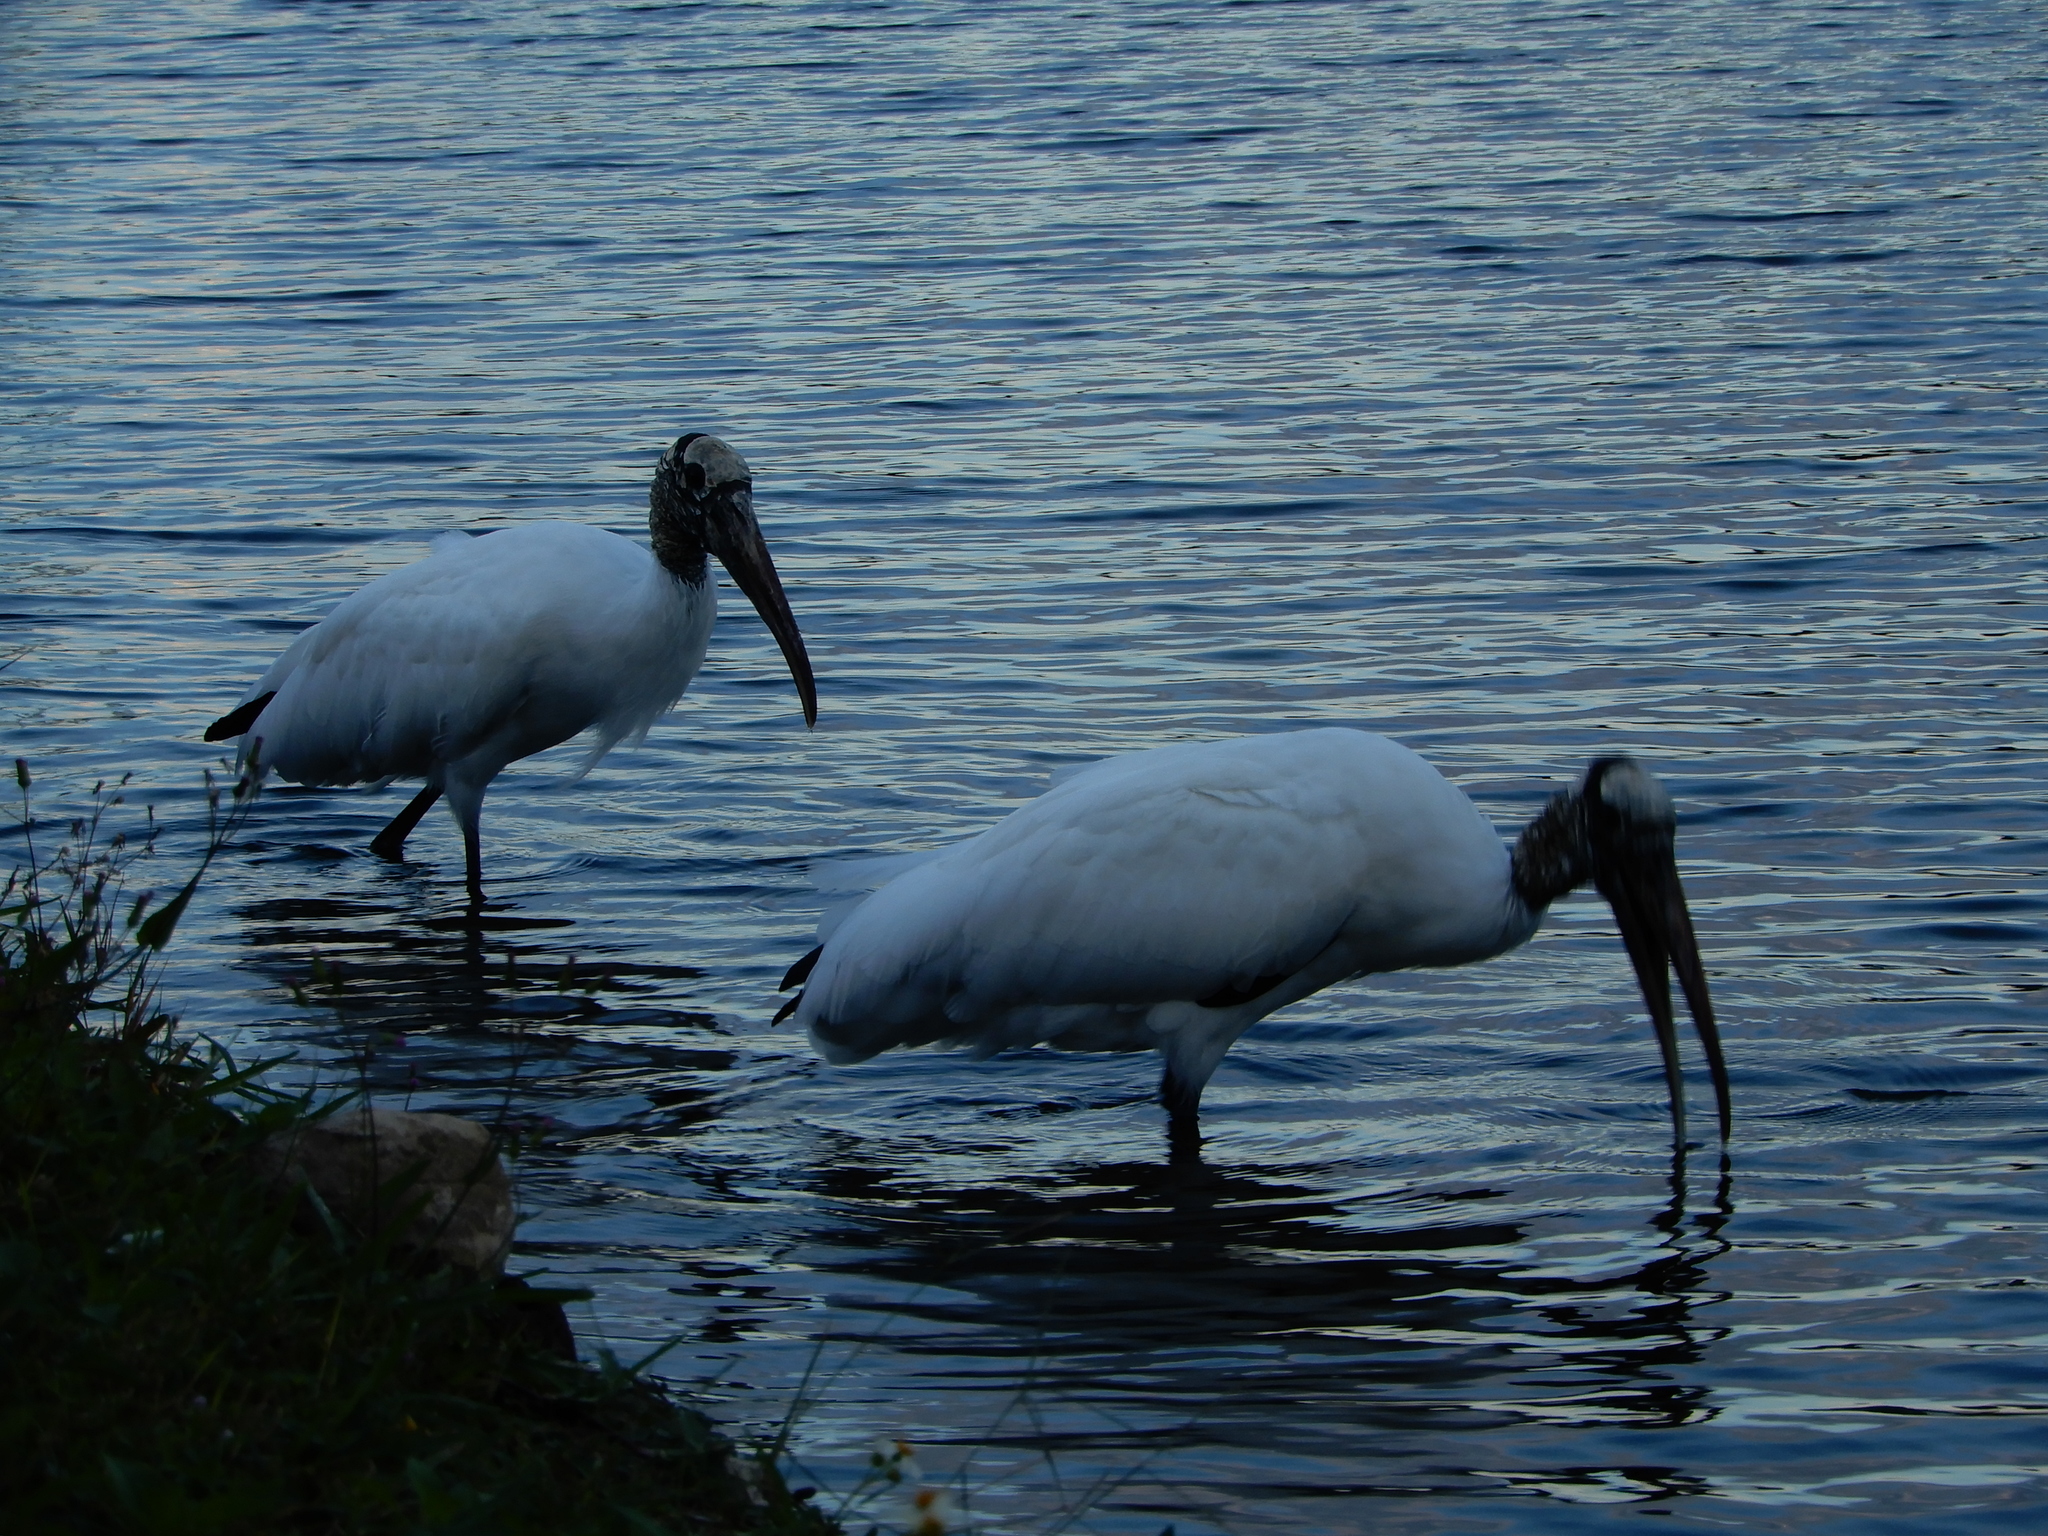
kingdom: Animalia
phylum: Chordata
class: Aves
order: Ciconiiformes
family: Ciconiidae
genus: Mycteria
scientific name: Mycteria americana
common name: Wood stork
